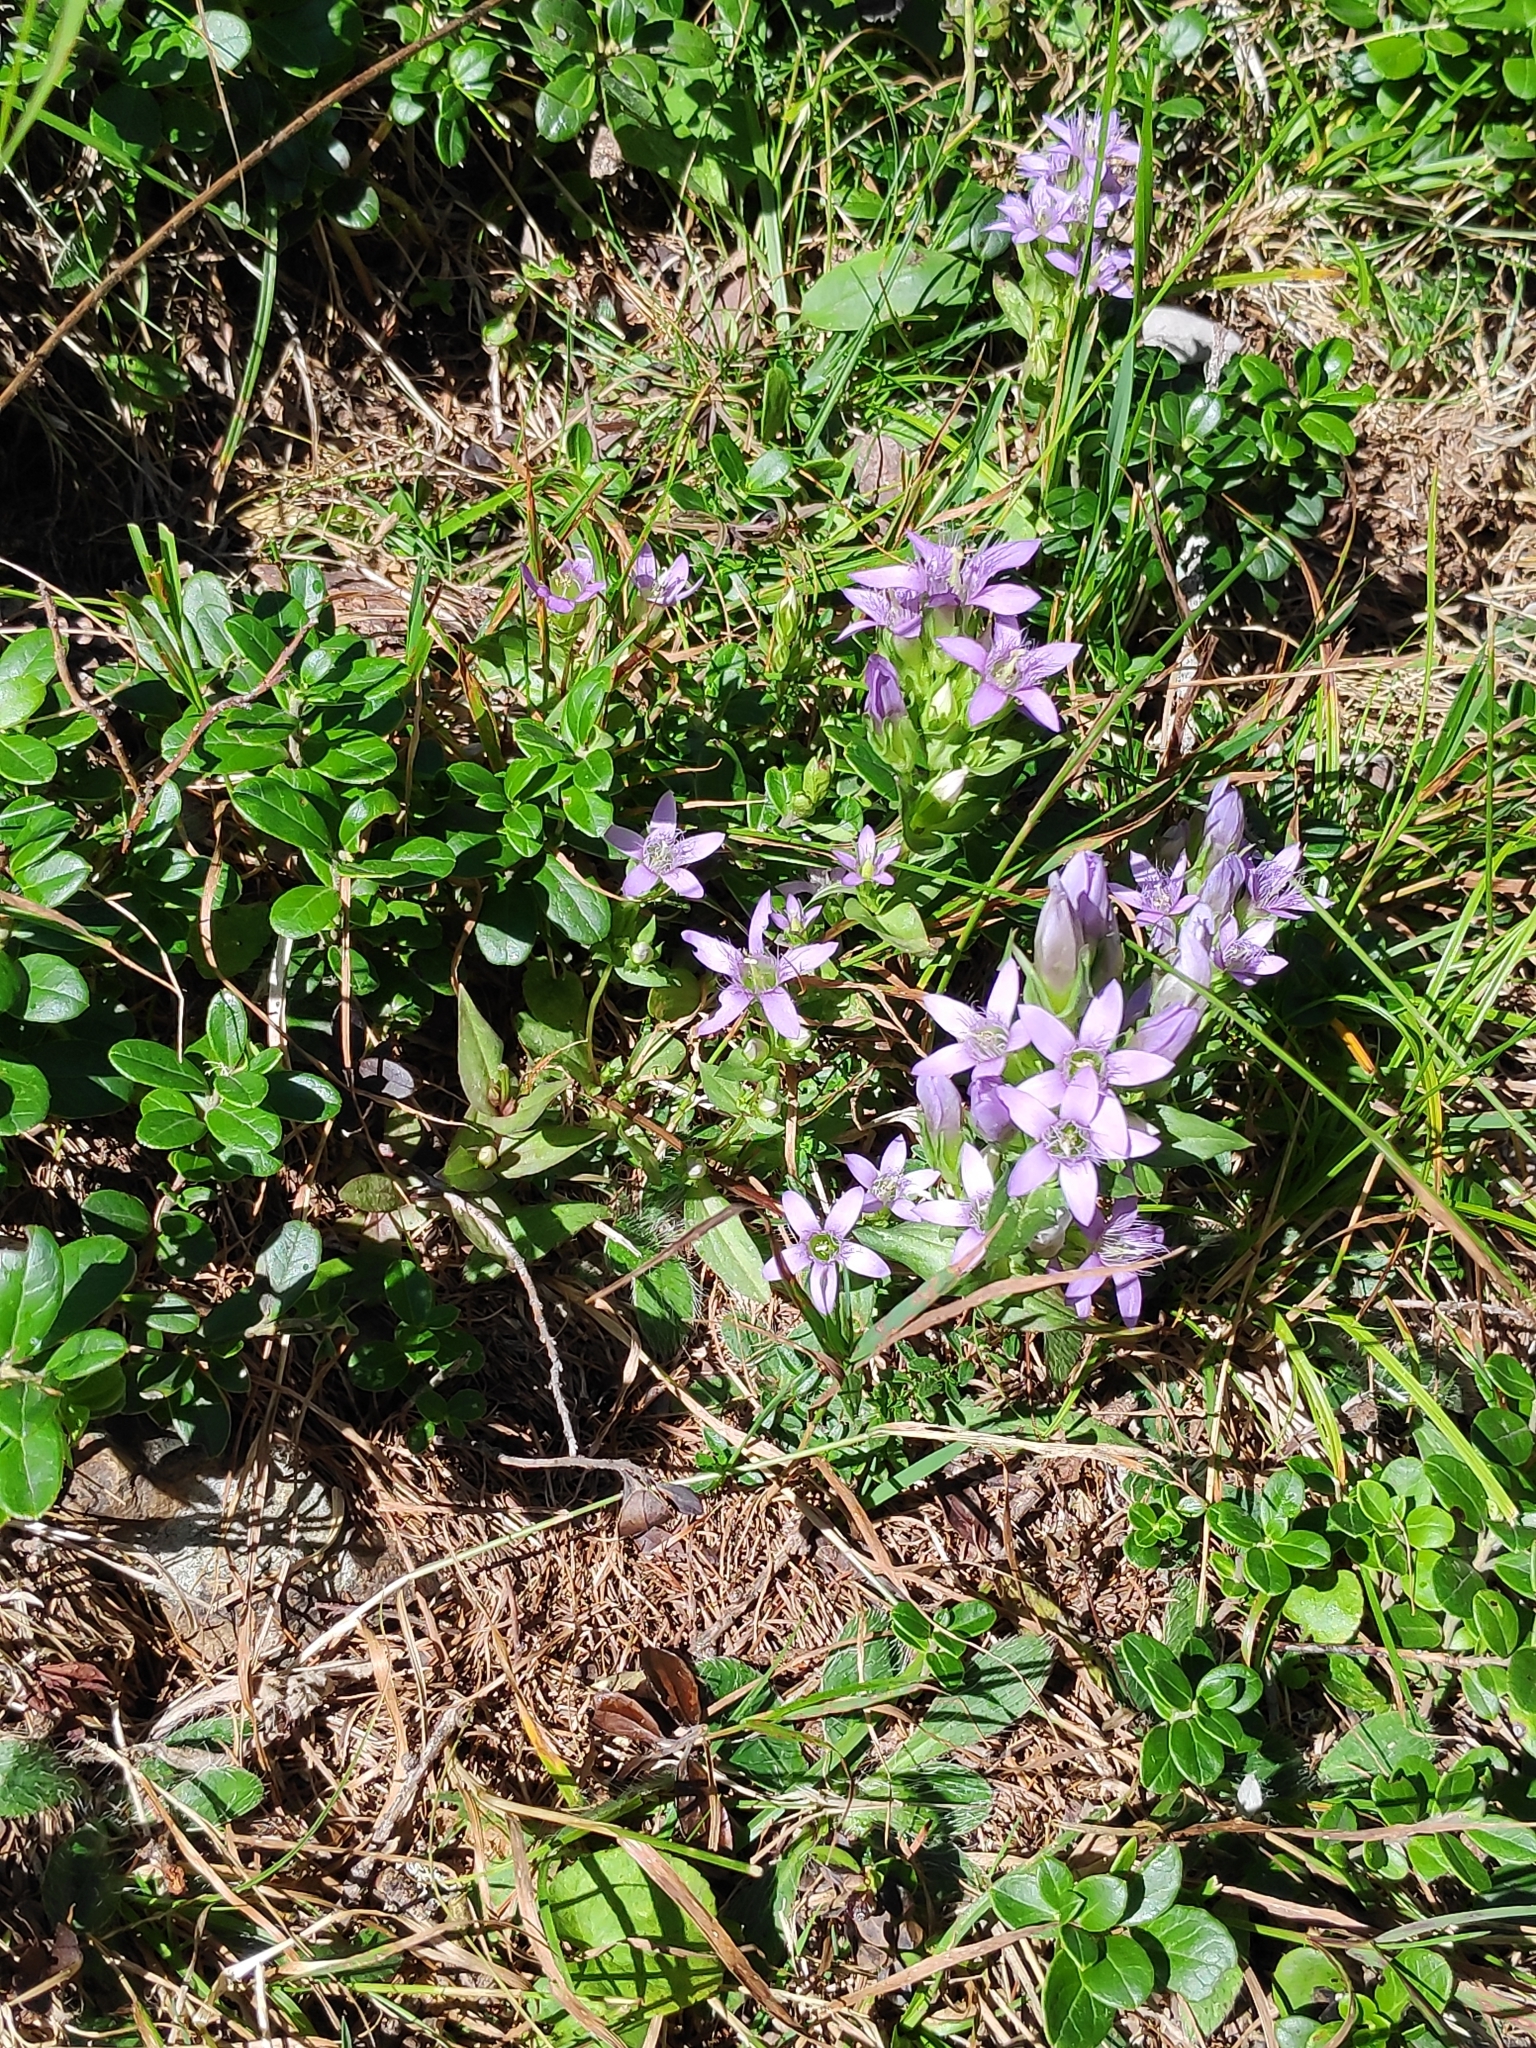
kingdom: Plantae
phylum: Tracheophyta
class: Magnoliopsida
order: Gentianales
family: Gentianaceae
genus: Gentianella
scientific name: Gentianella anisodonta
